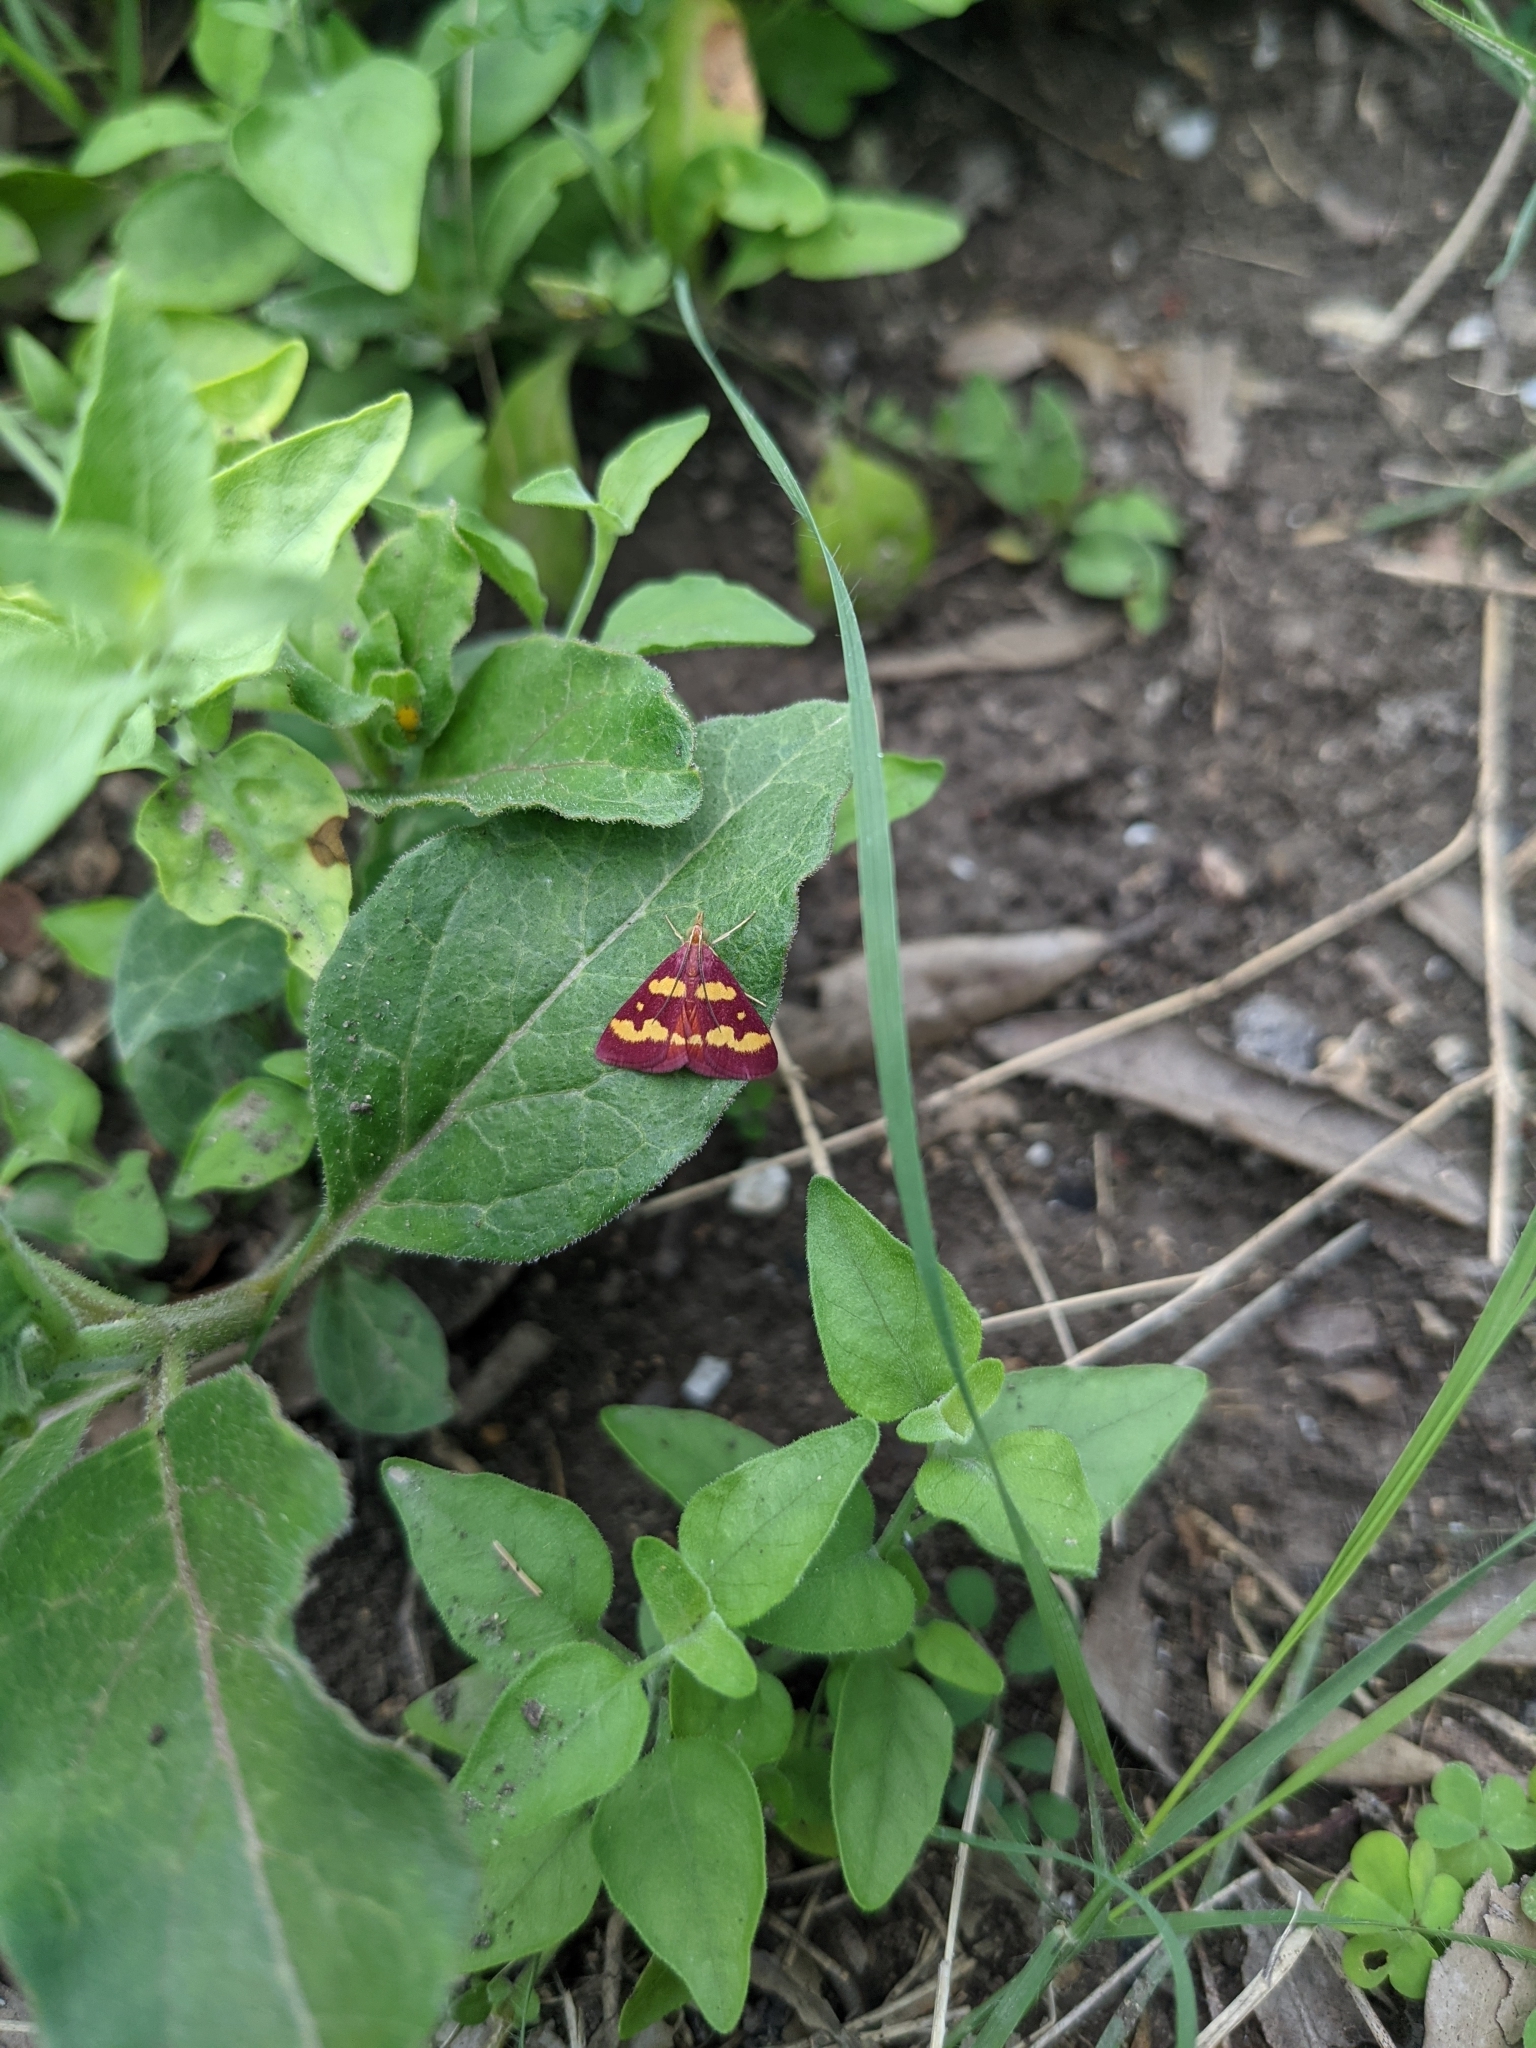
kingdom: Animalia
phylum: Arthropoda
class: Insecta
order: Lepidoptera
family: Crambidae
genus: Pyrausta
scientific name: Pyrausta tyralis
